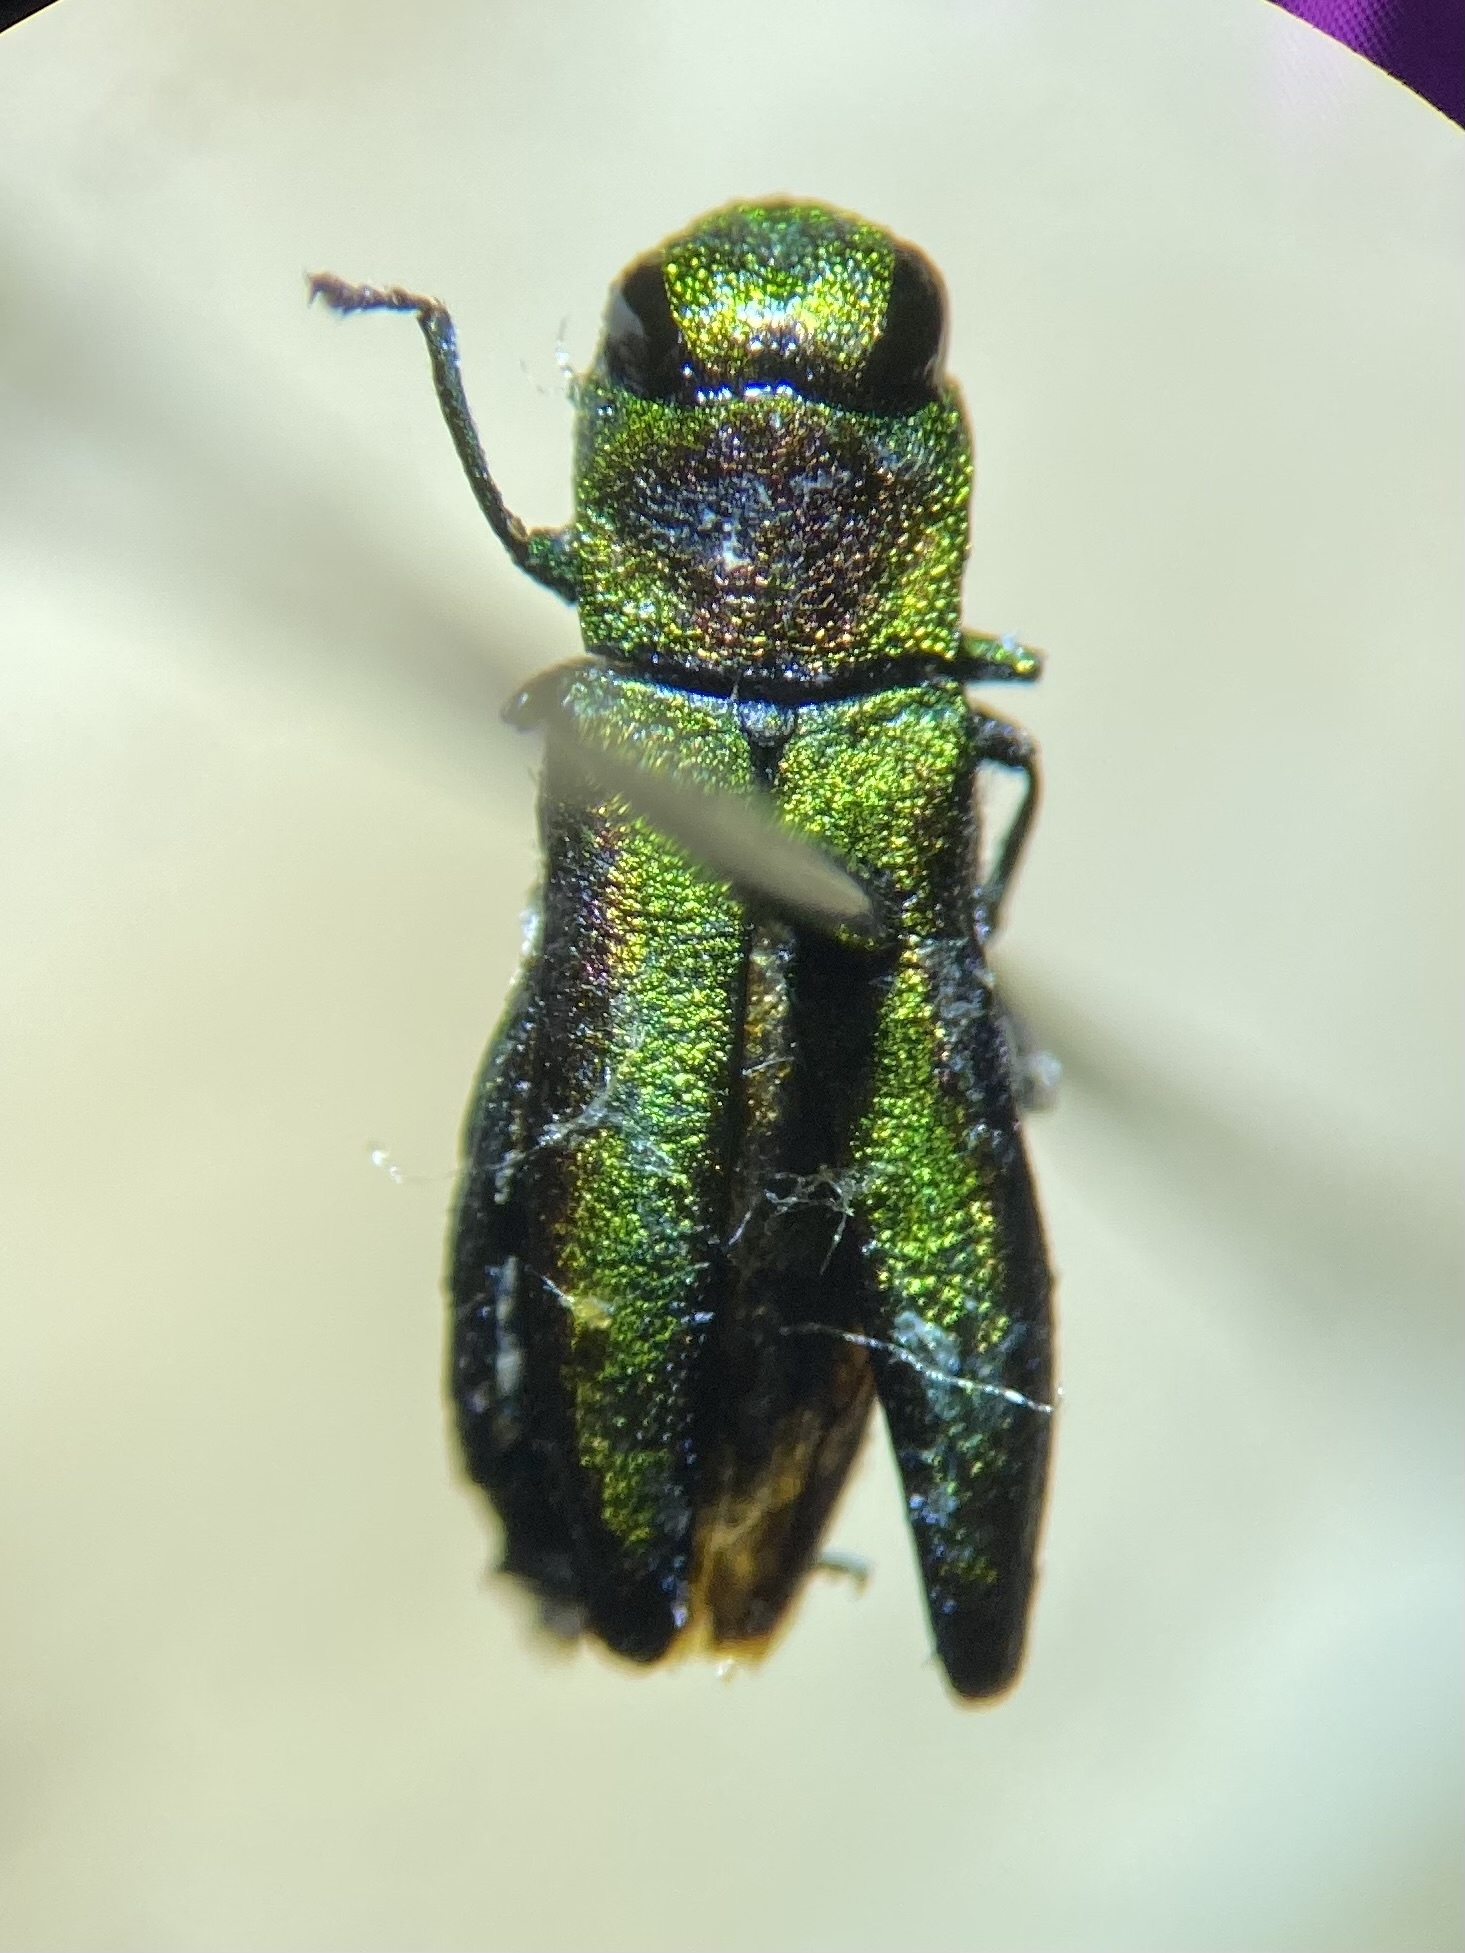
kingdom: Animalia
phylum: Arthropoda
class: Insecta
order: Coleoptera
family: Buprestidae
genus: Anthaxia
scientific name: Anthaxia quercata
